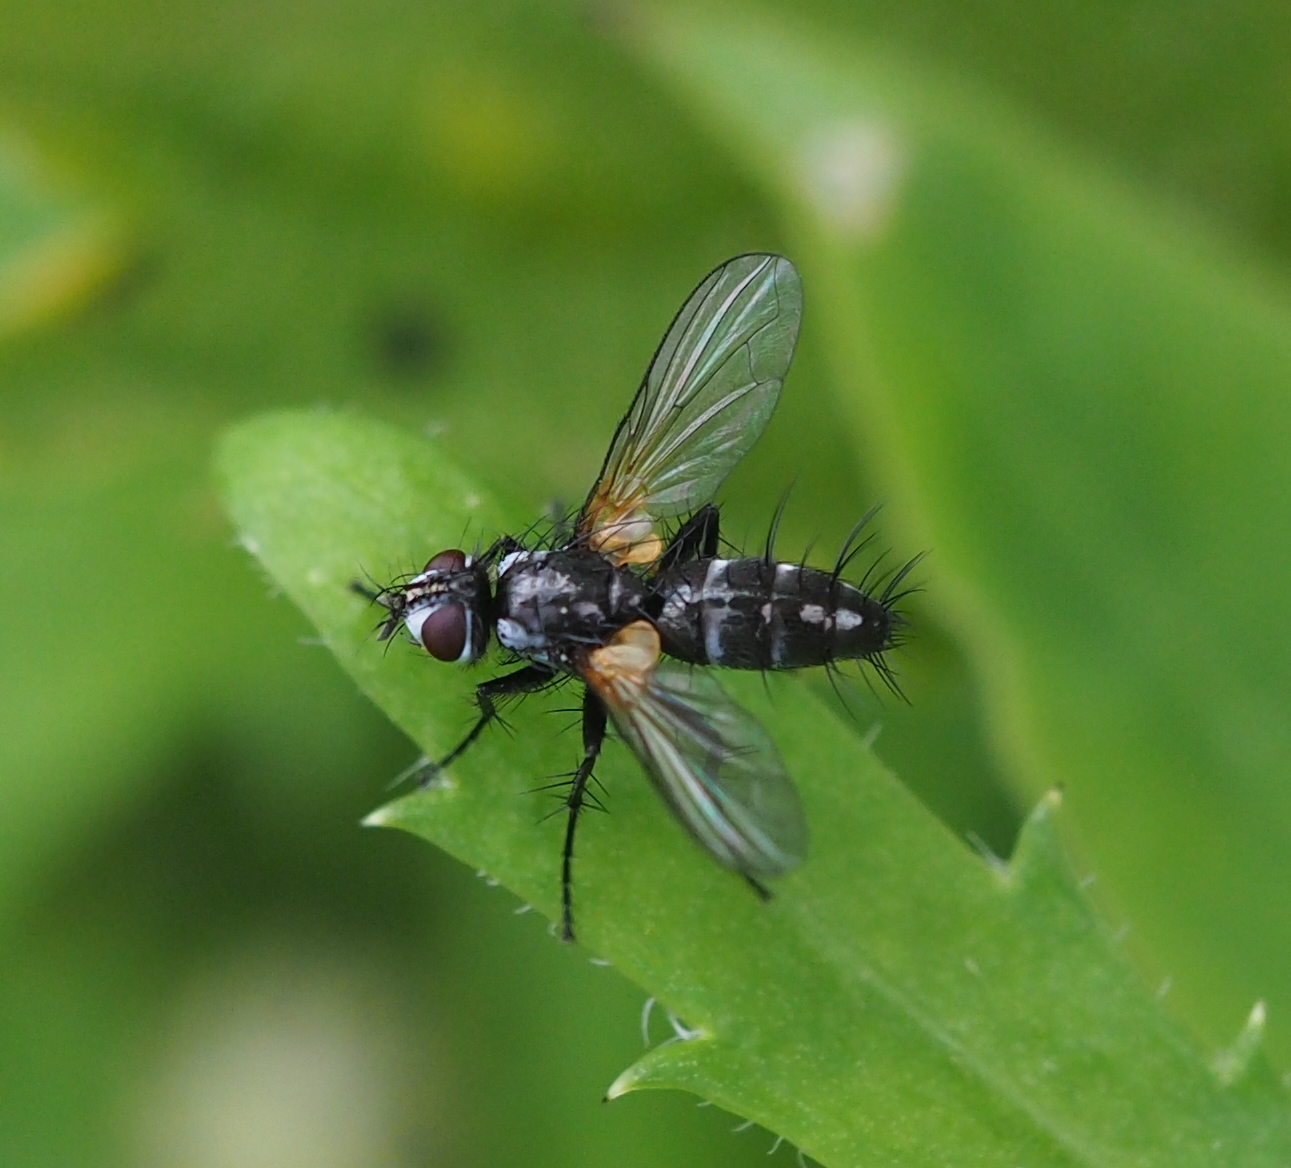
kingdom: Animalia
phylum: Arthropoda
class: Insecta
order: Diptera
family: Tachinidae
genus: Phyllomya
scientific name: Phyllomya volvulus
